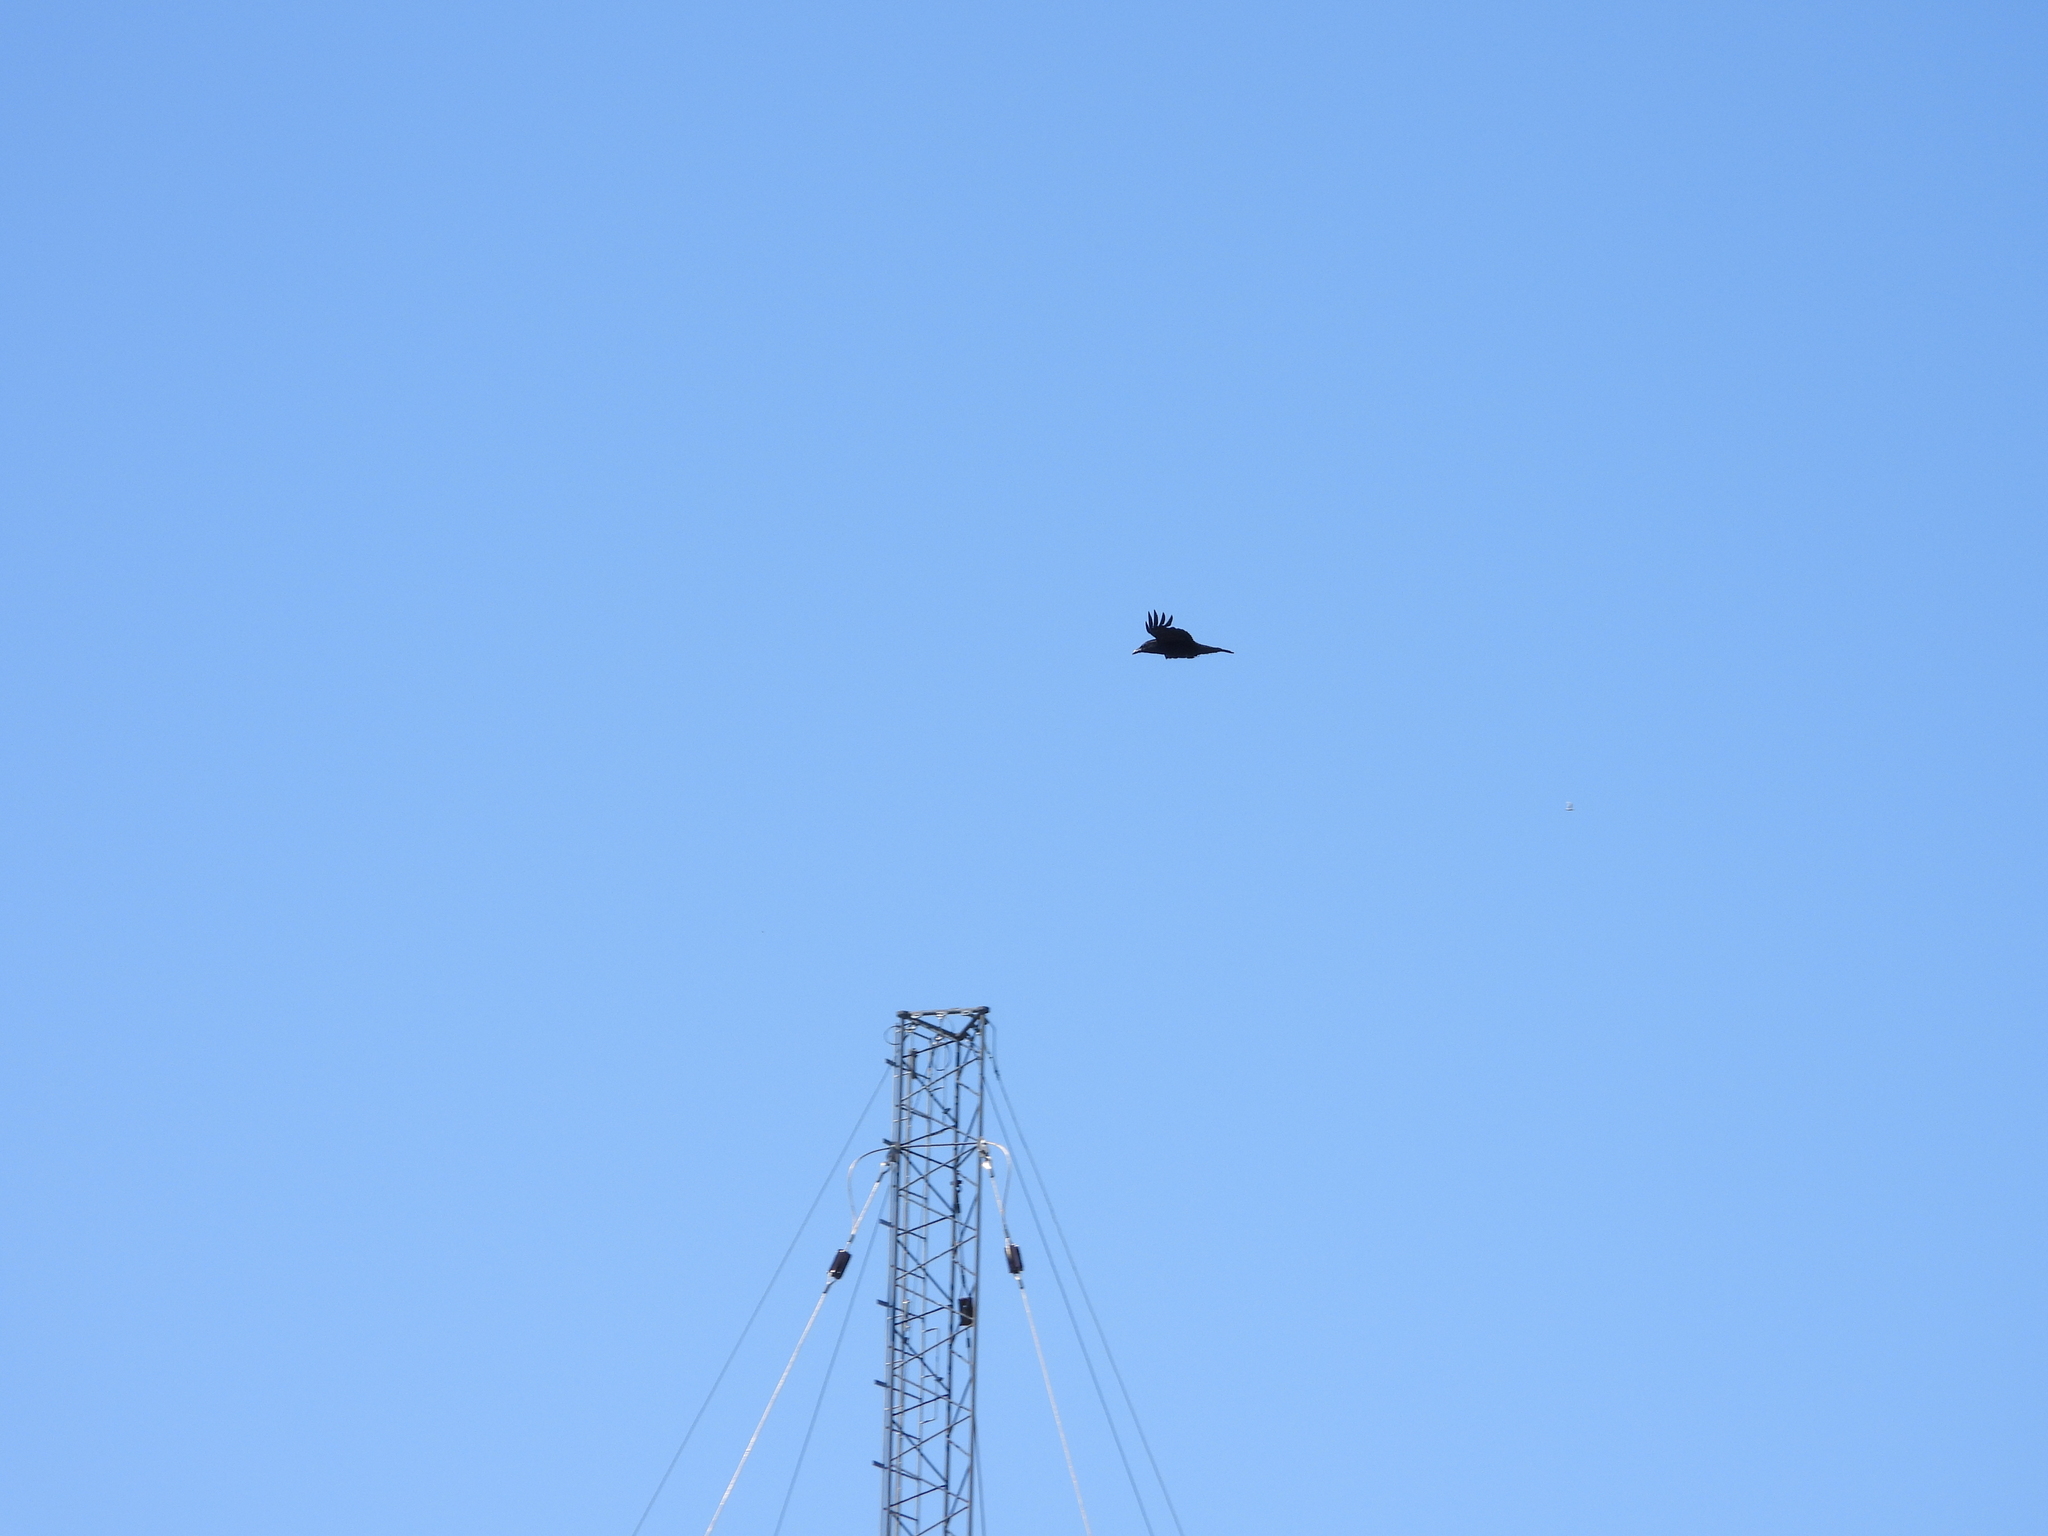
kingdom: Animalia
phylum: Chordata
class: Aves
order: Passeriformes
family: Corvidae
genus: Corvus
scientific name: Corvus corax
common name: Common raven
